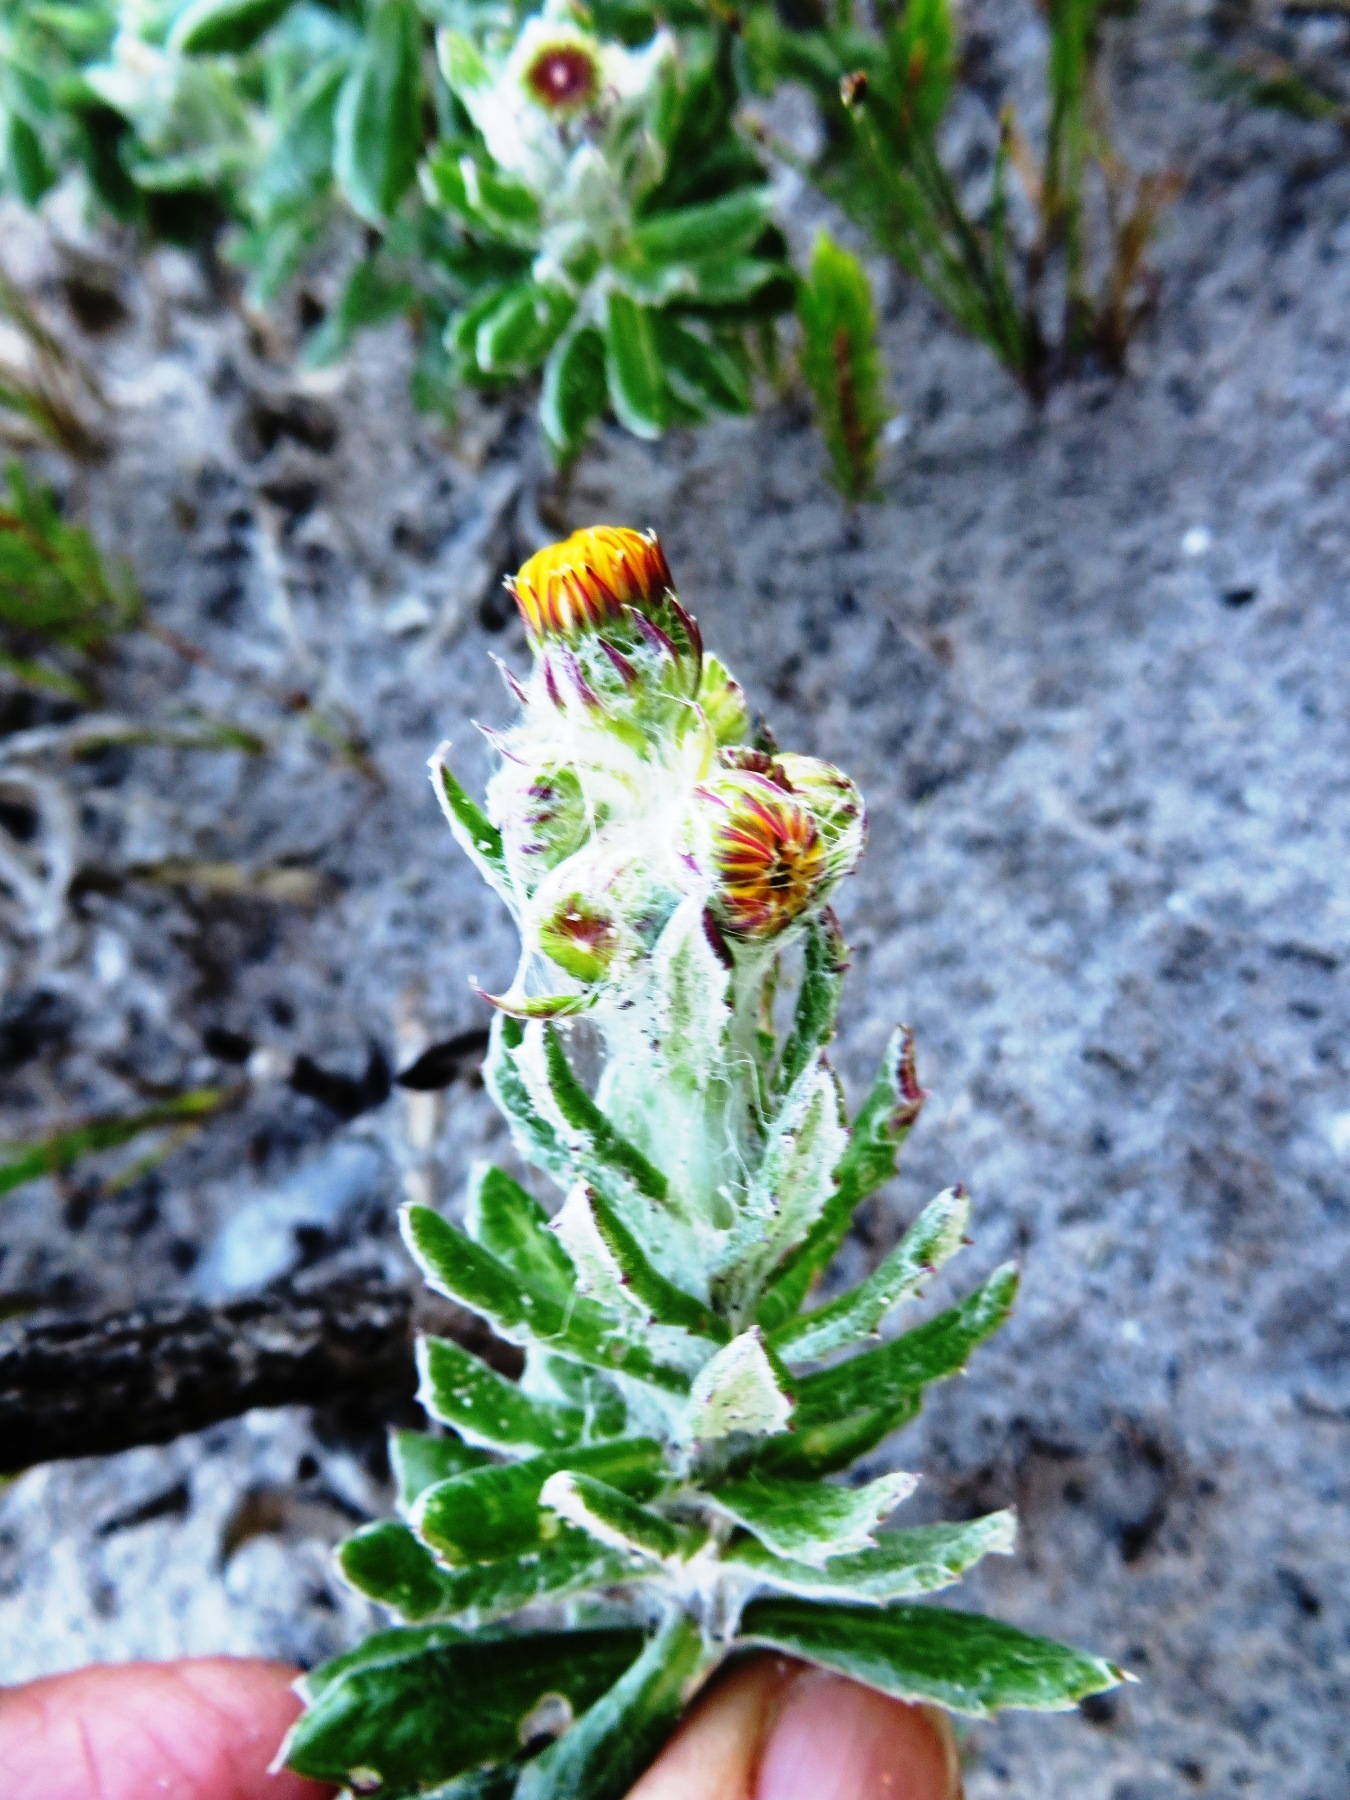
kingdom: Plantae
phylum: Tracheophyta
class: Magnoliopsida
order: Asterales
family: Asteraceae
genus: Senecio
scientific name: Senecio arniciflorus
